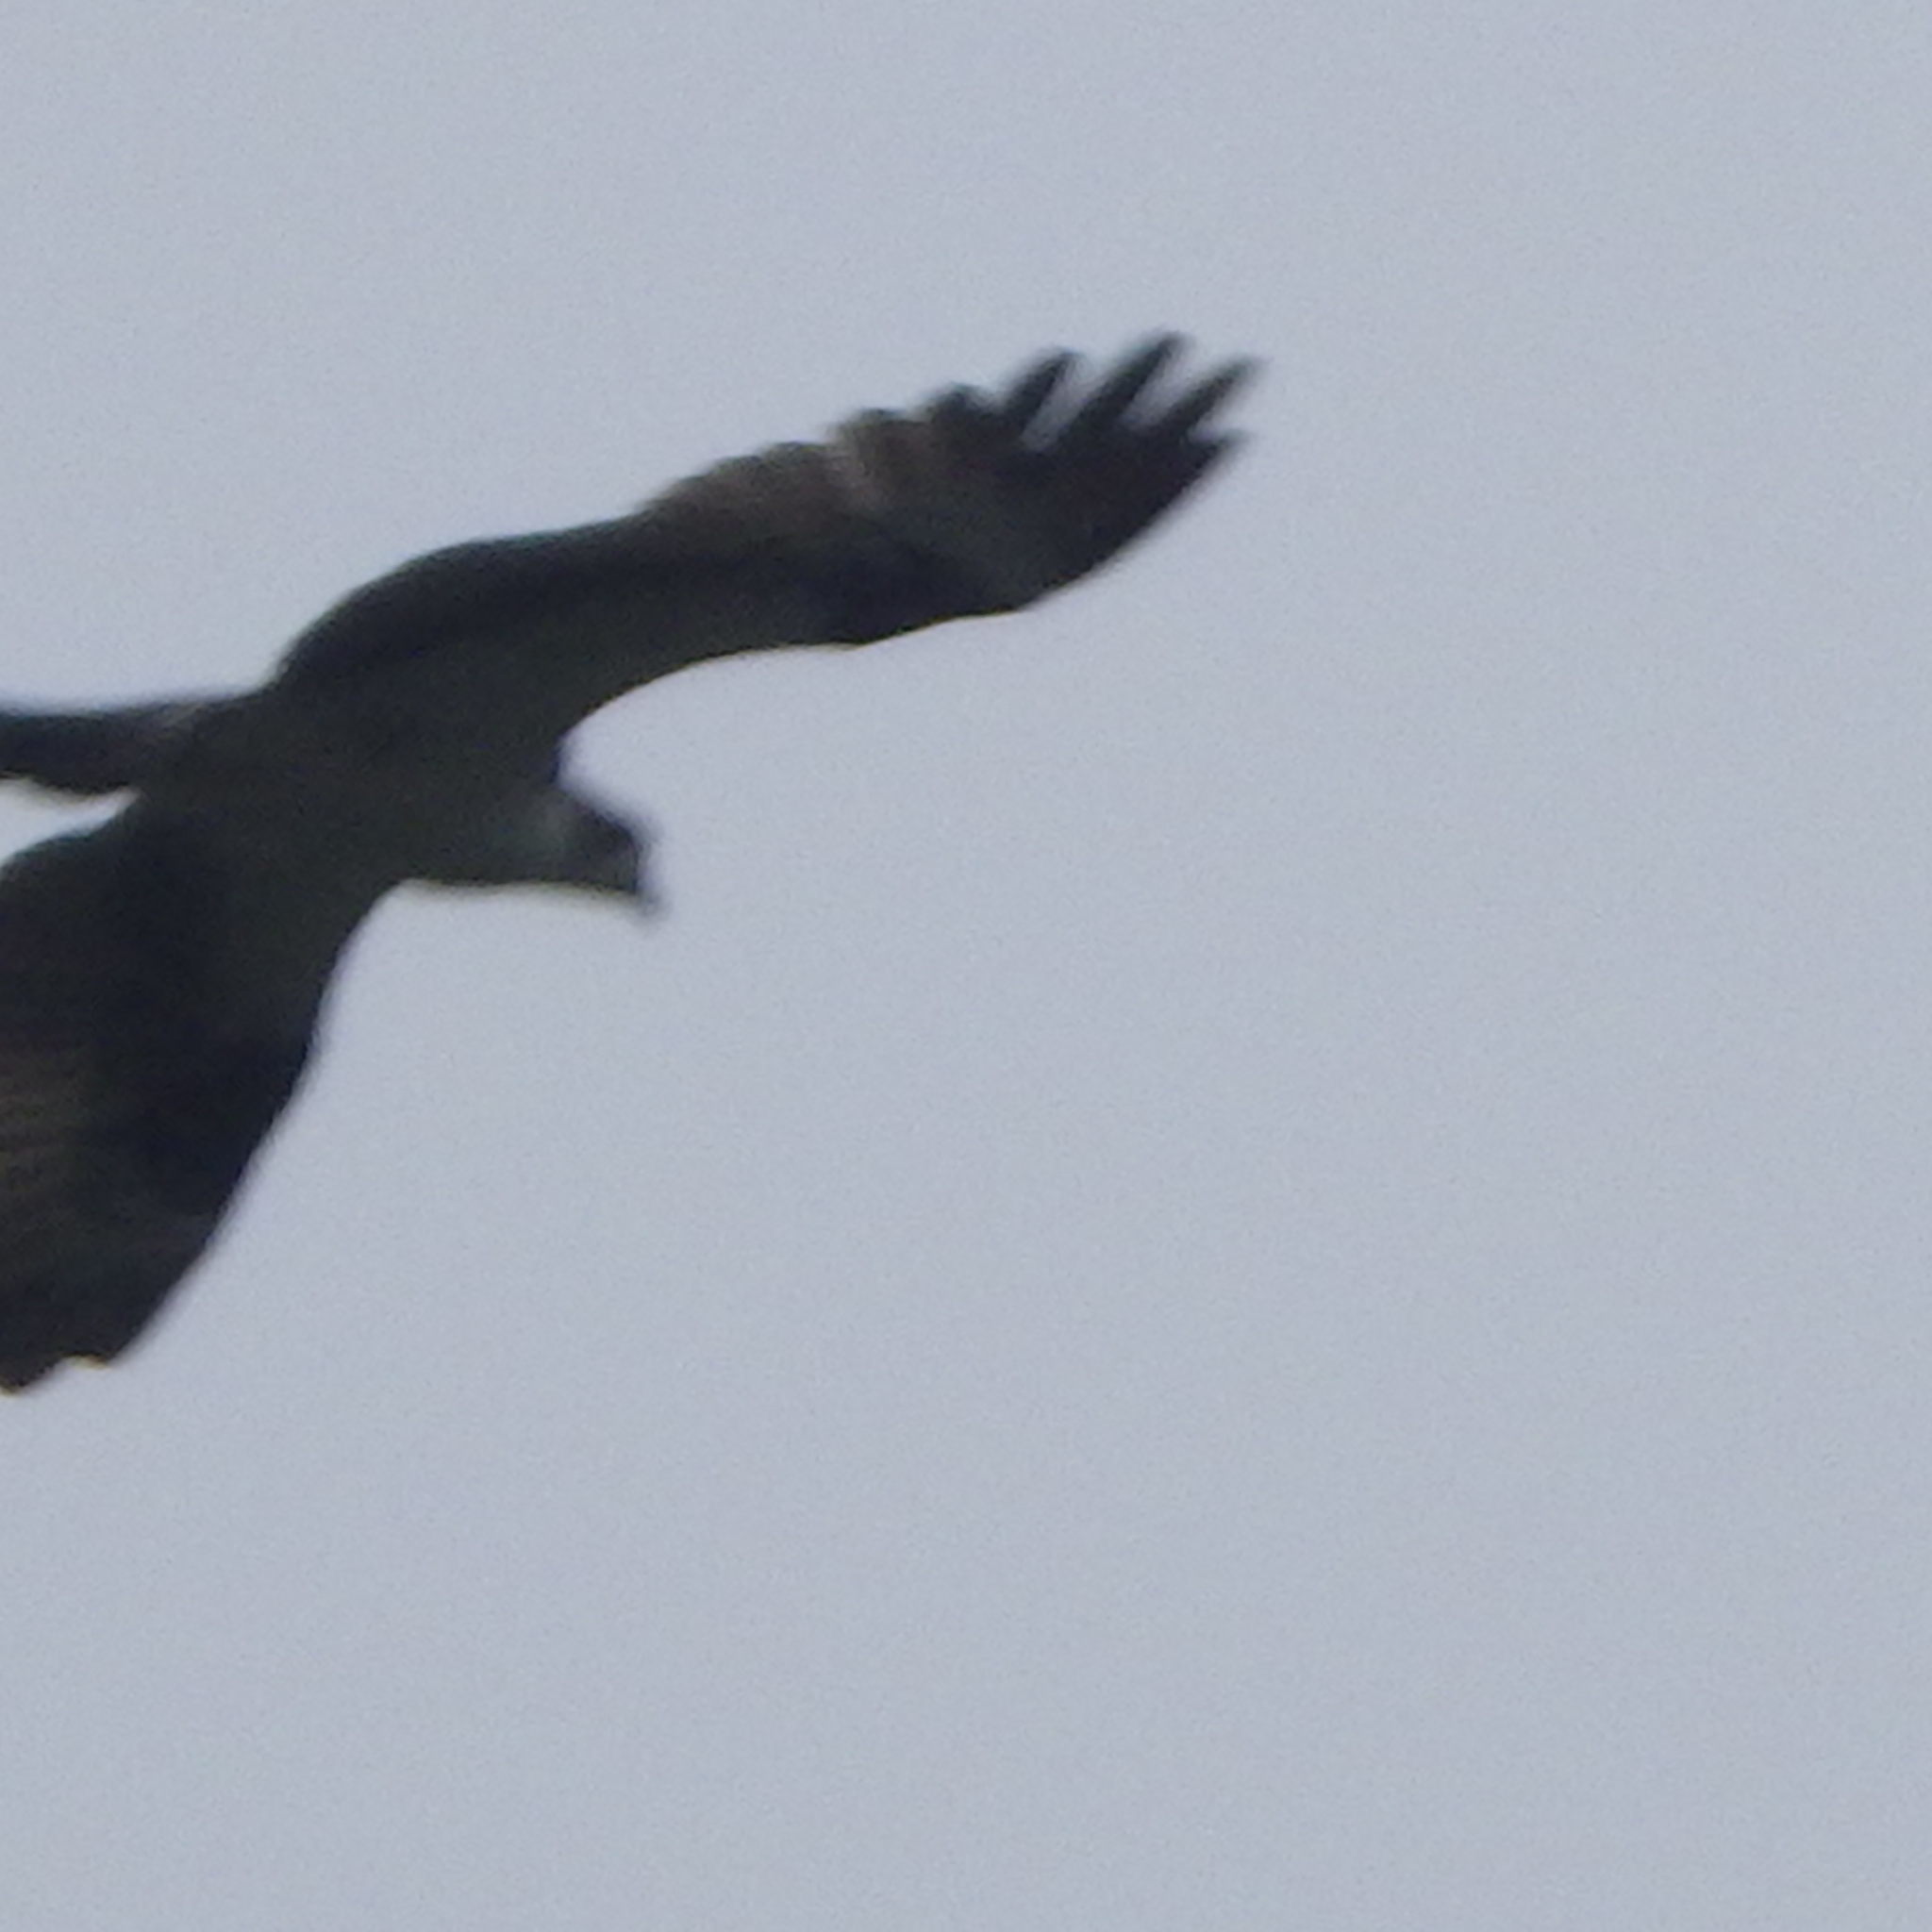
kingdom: Animalia
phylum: Chordata
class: Aves
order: Accipitriformes
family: Pandionidae
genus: Pandion
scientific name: Pandion haliaetus
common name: Osprey
